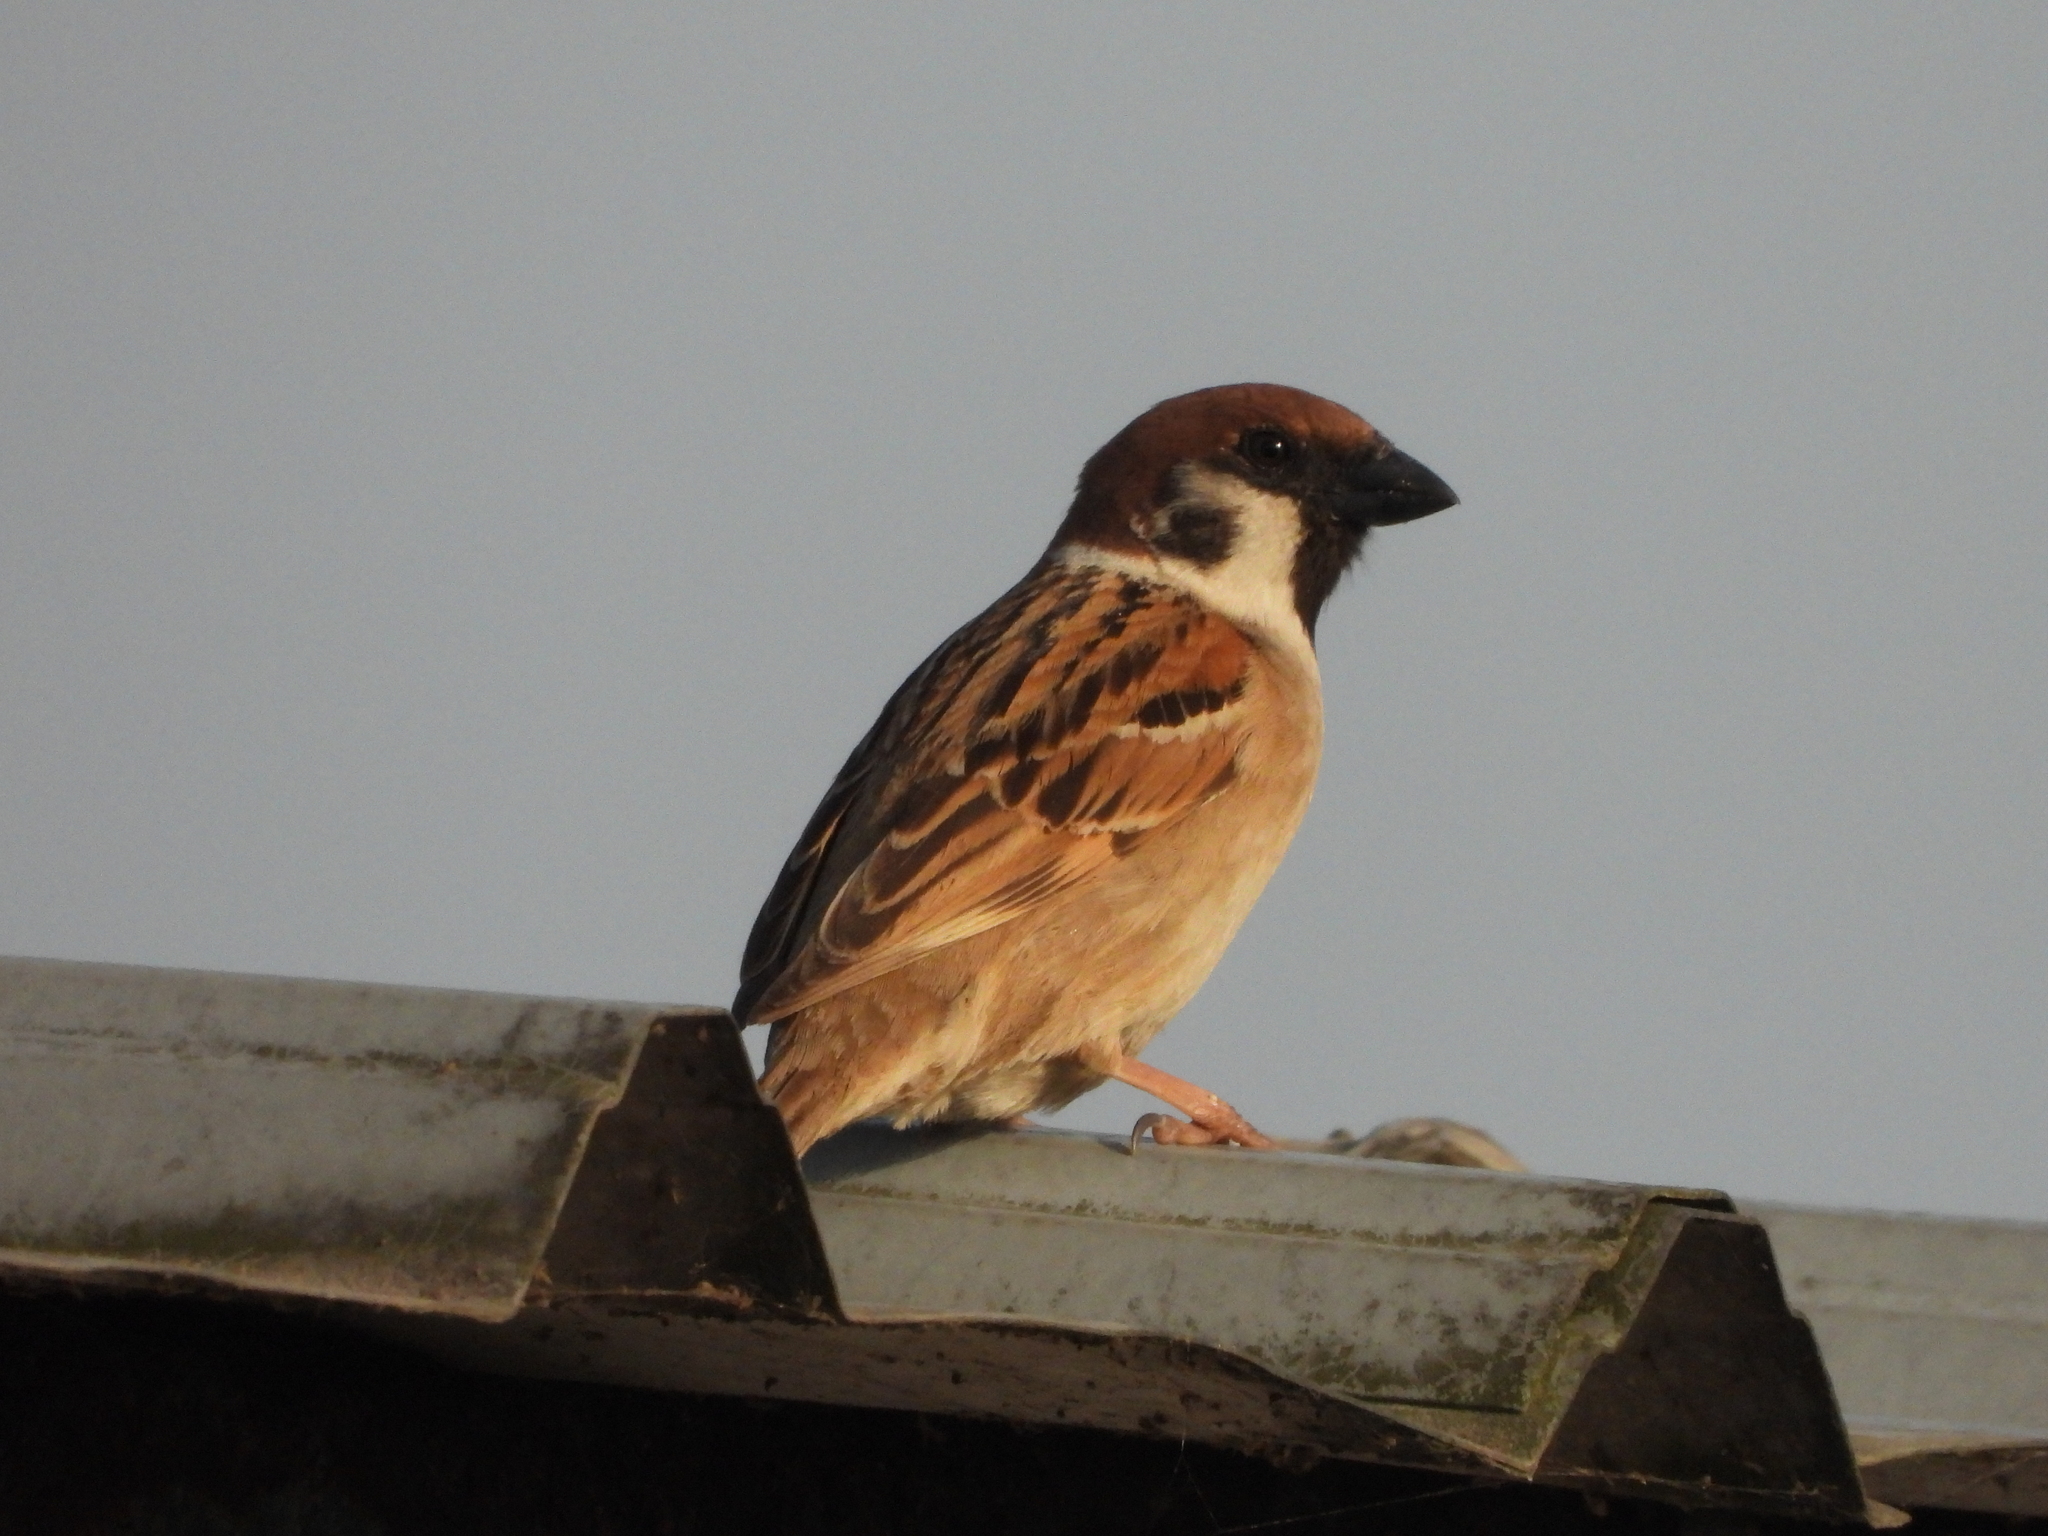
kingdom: Animalia
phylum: Chordata
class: Aves
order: Passeriformes
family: Passeridae
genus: Passer
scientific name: Passer montanus
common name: Eurasian tree sparrow
